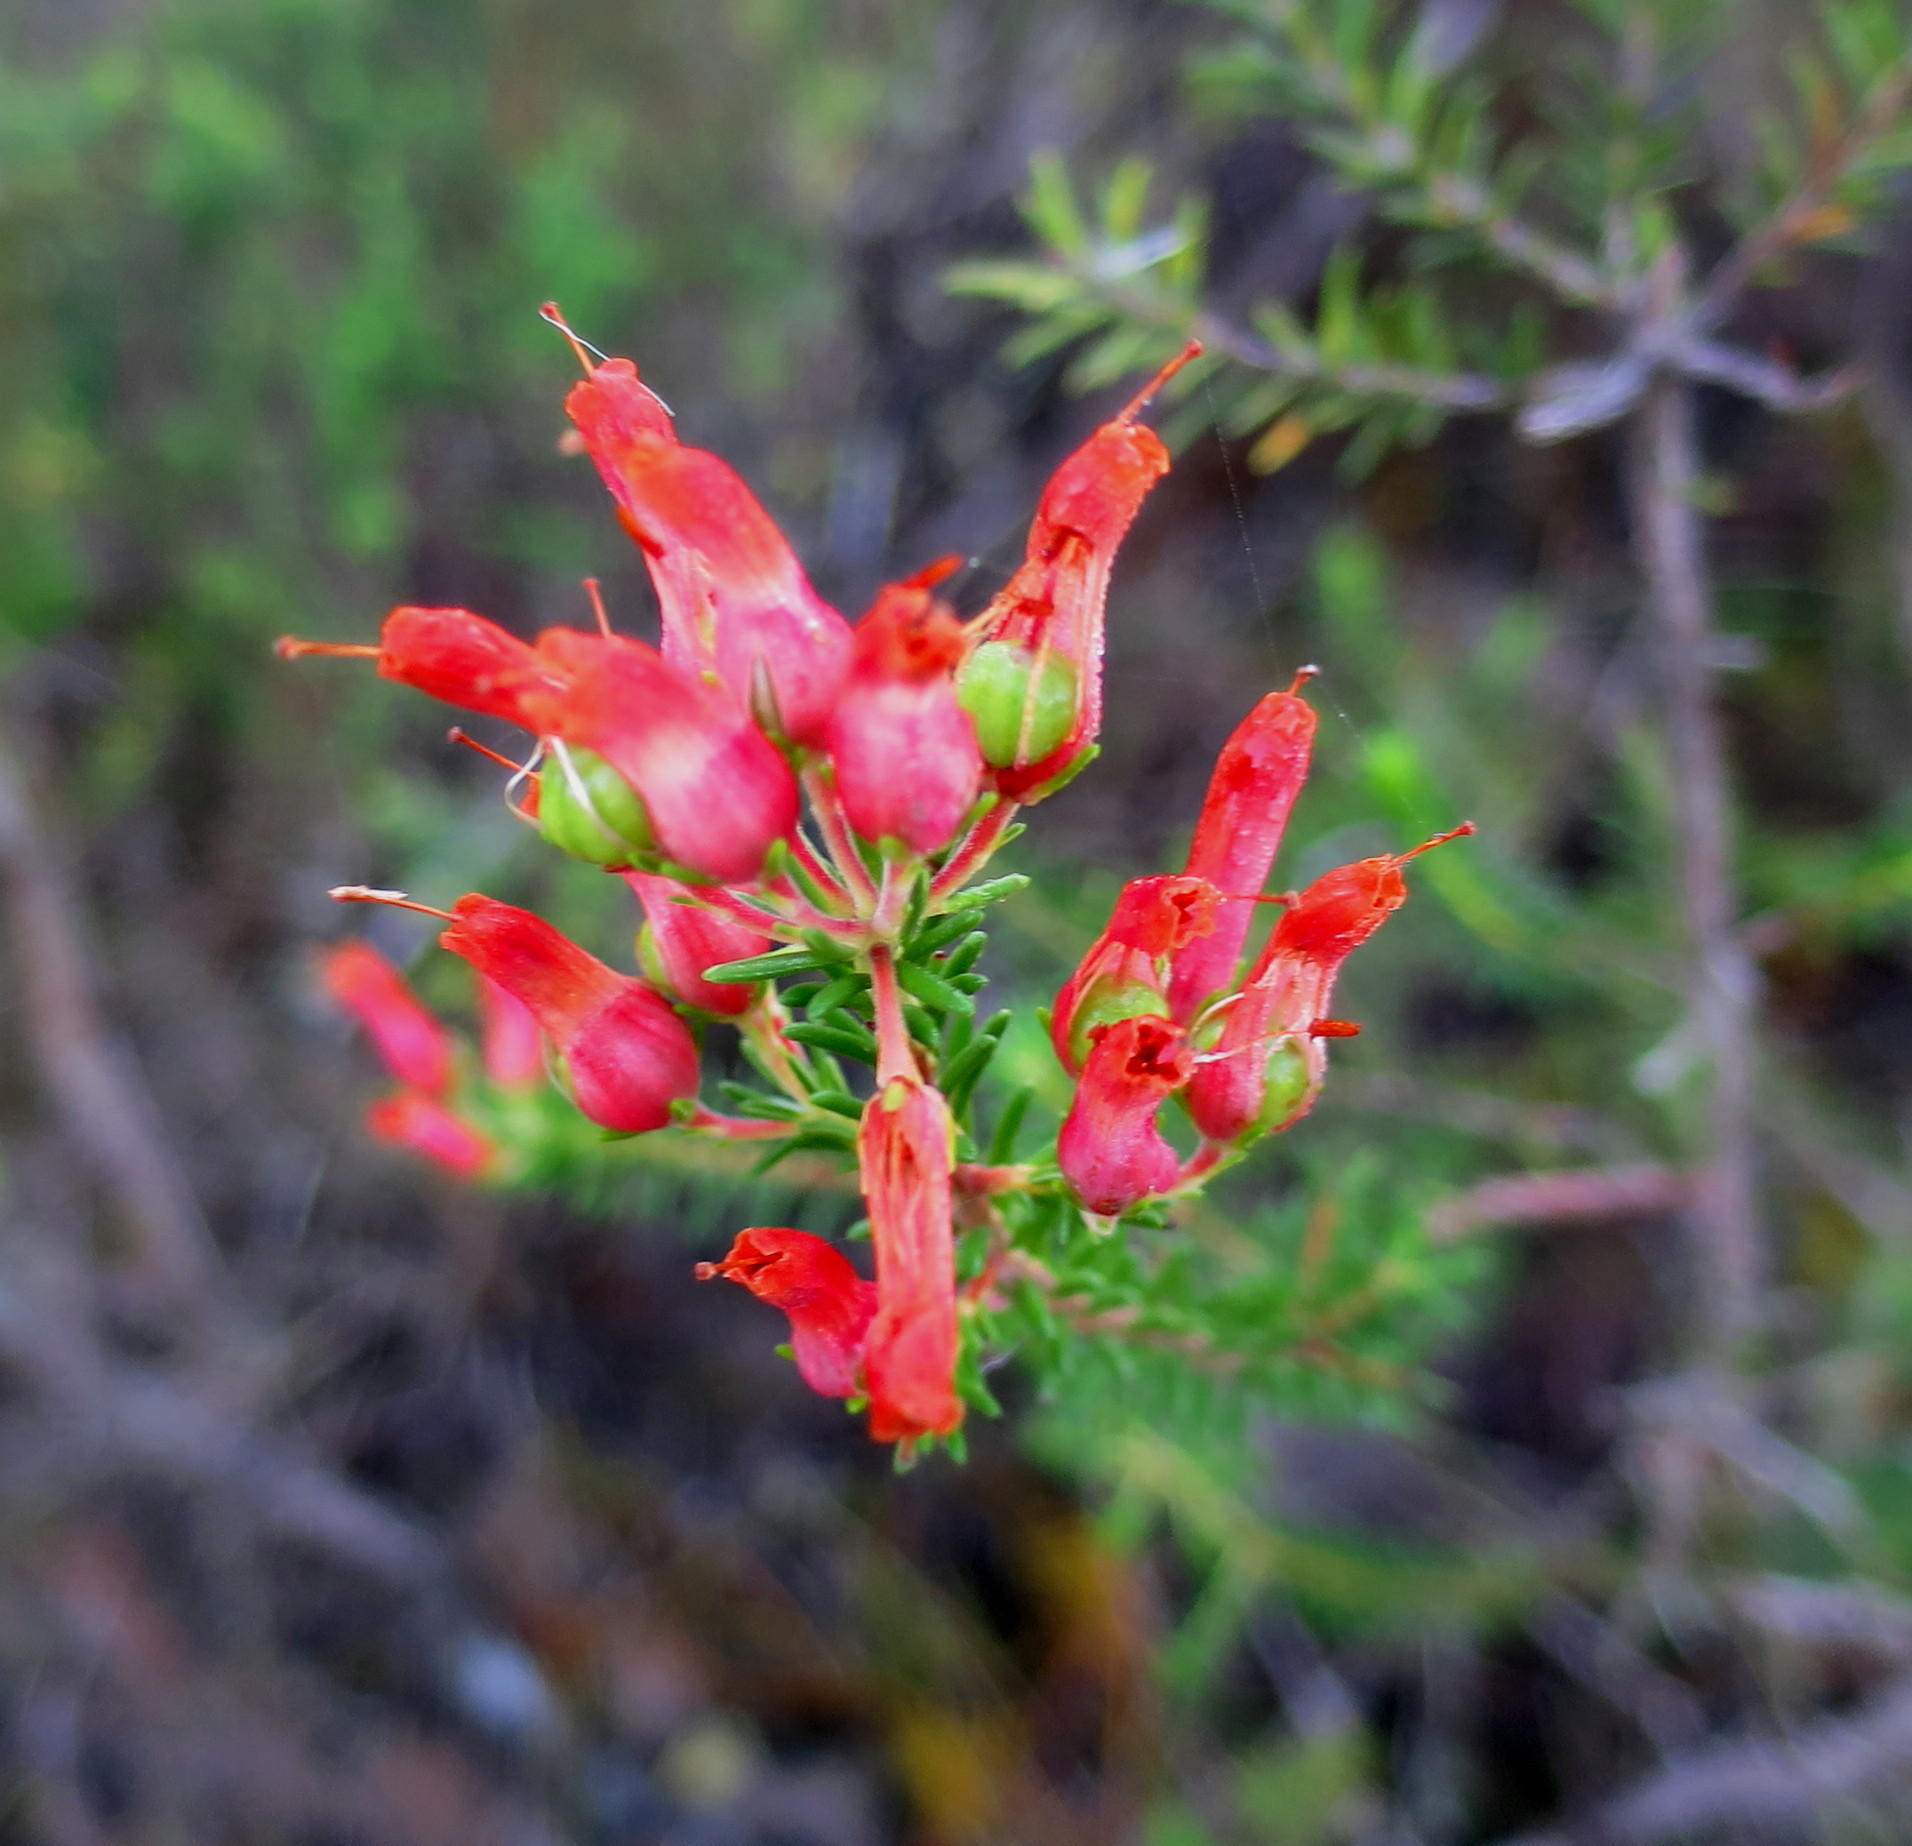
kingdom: Plantae
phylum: Tracheophyta
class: Magnoliopsida
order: Ericales
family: Ericaceae
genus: Erica
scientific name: Erica chloroloma
